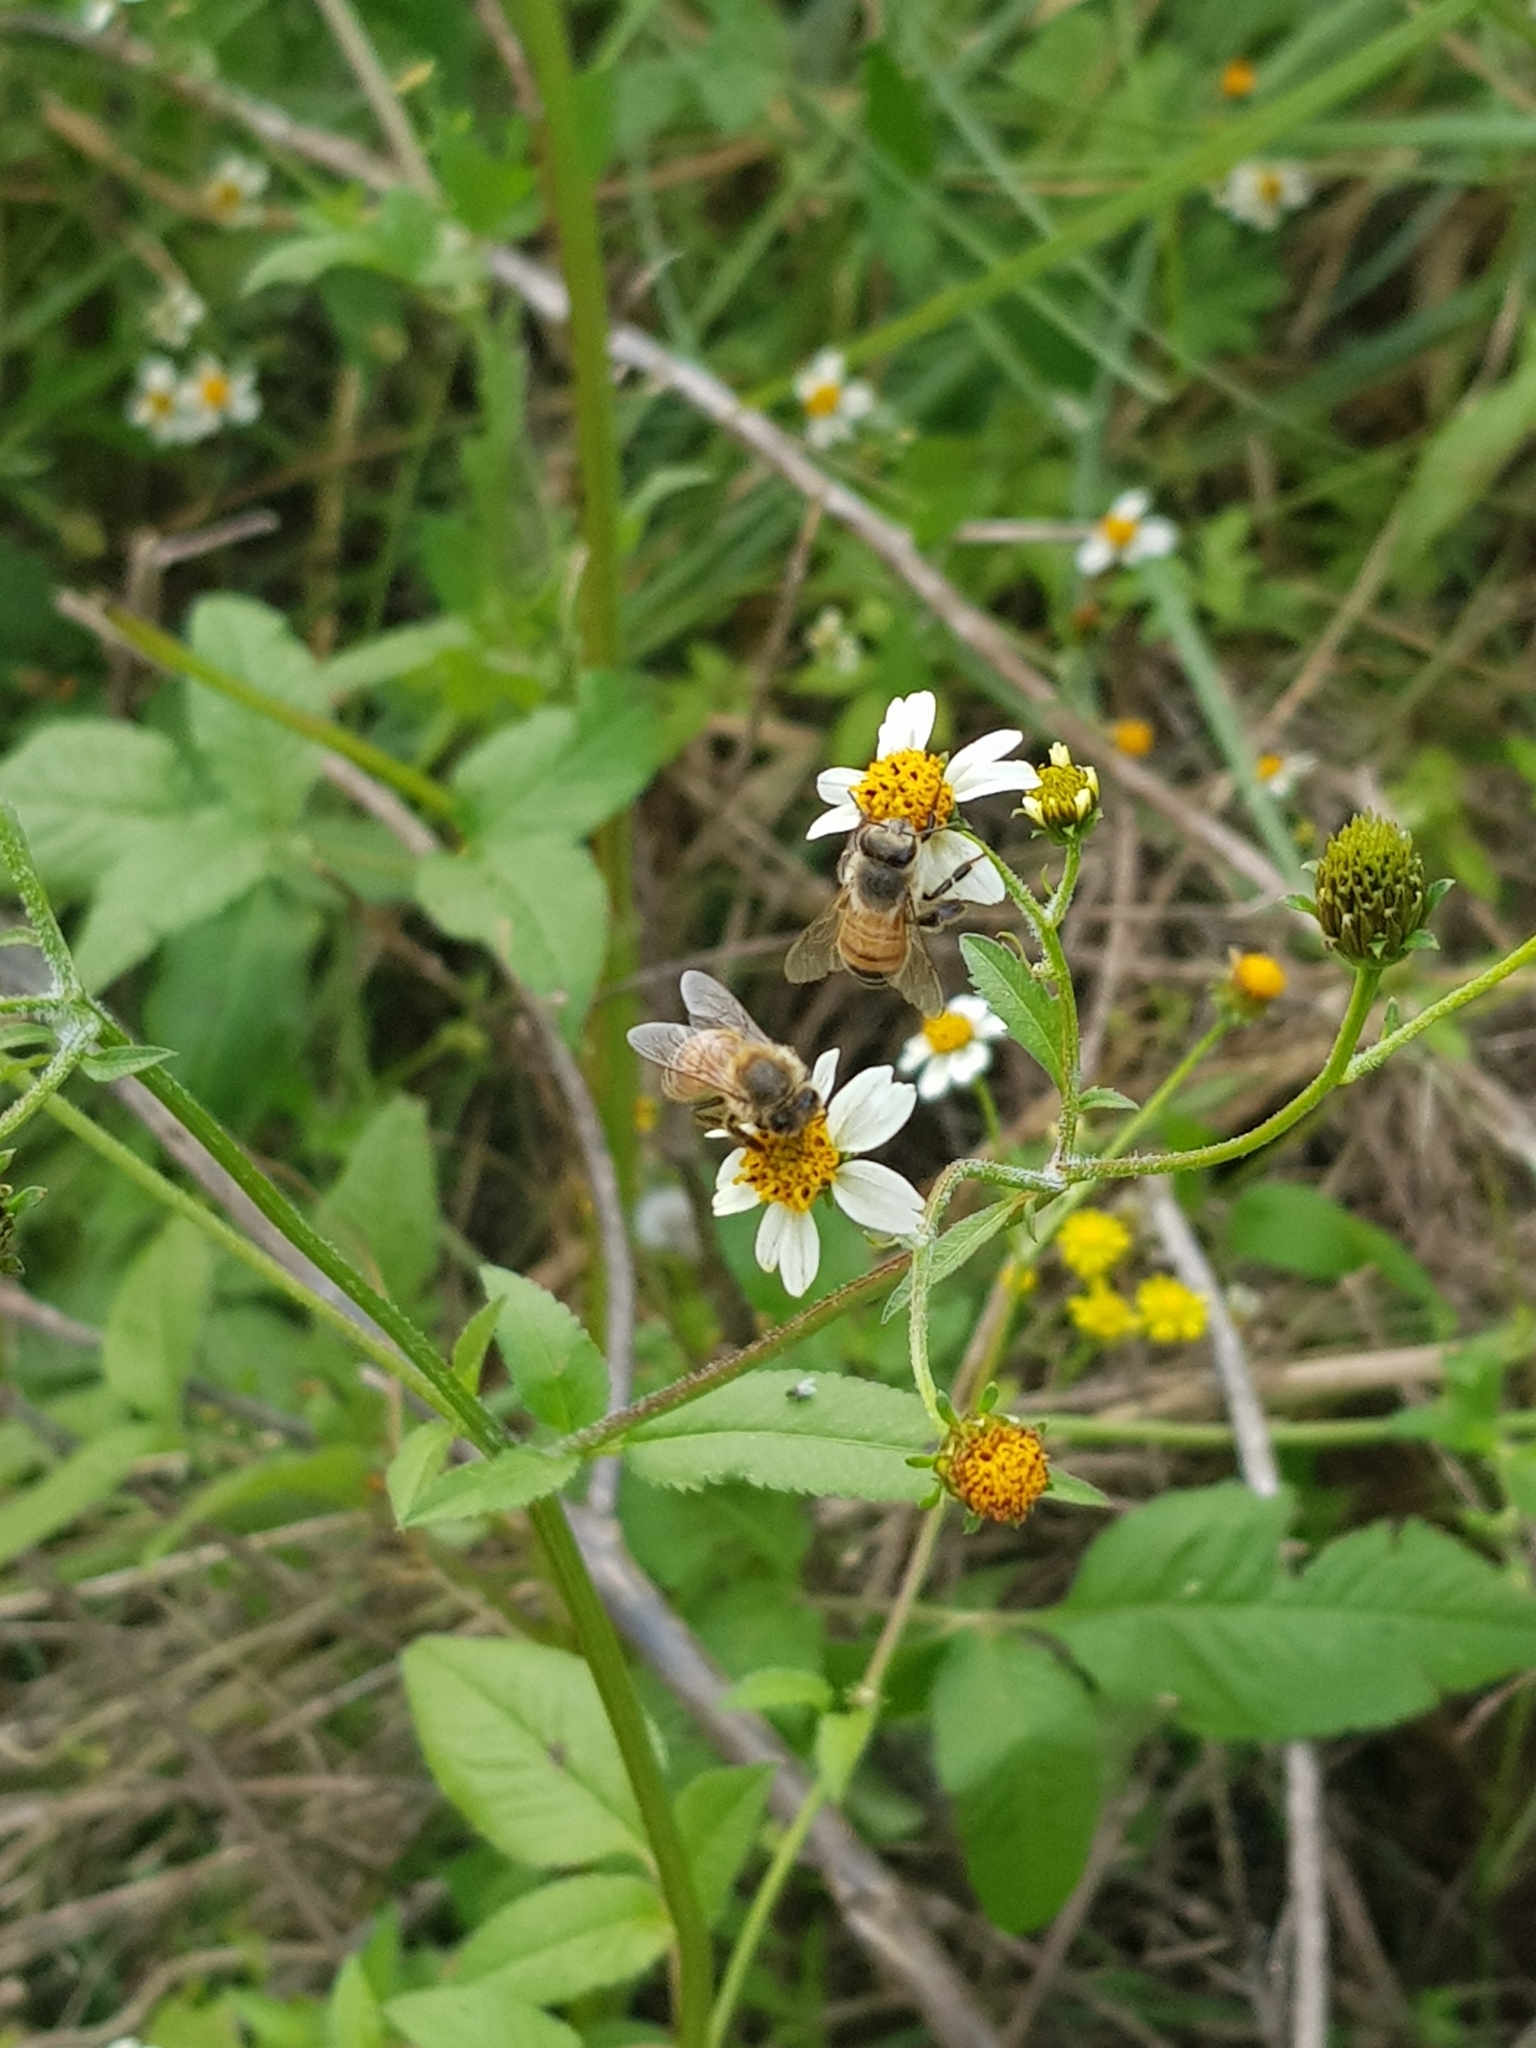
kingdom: Animalia
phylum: Arthropoda
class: Insecta
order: Hymenoptera
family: Apidae
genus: Apis
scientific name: Apis mellifera
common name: Honey bee
